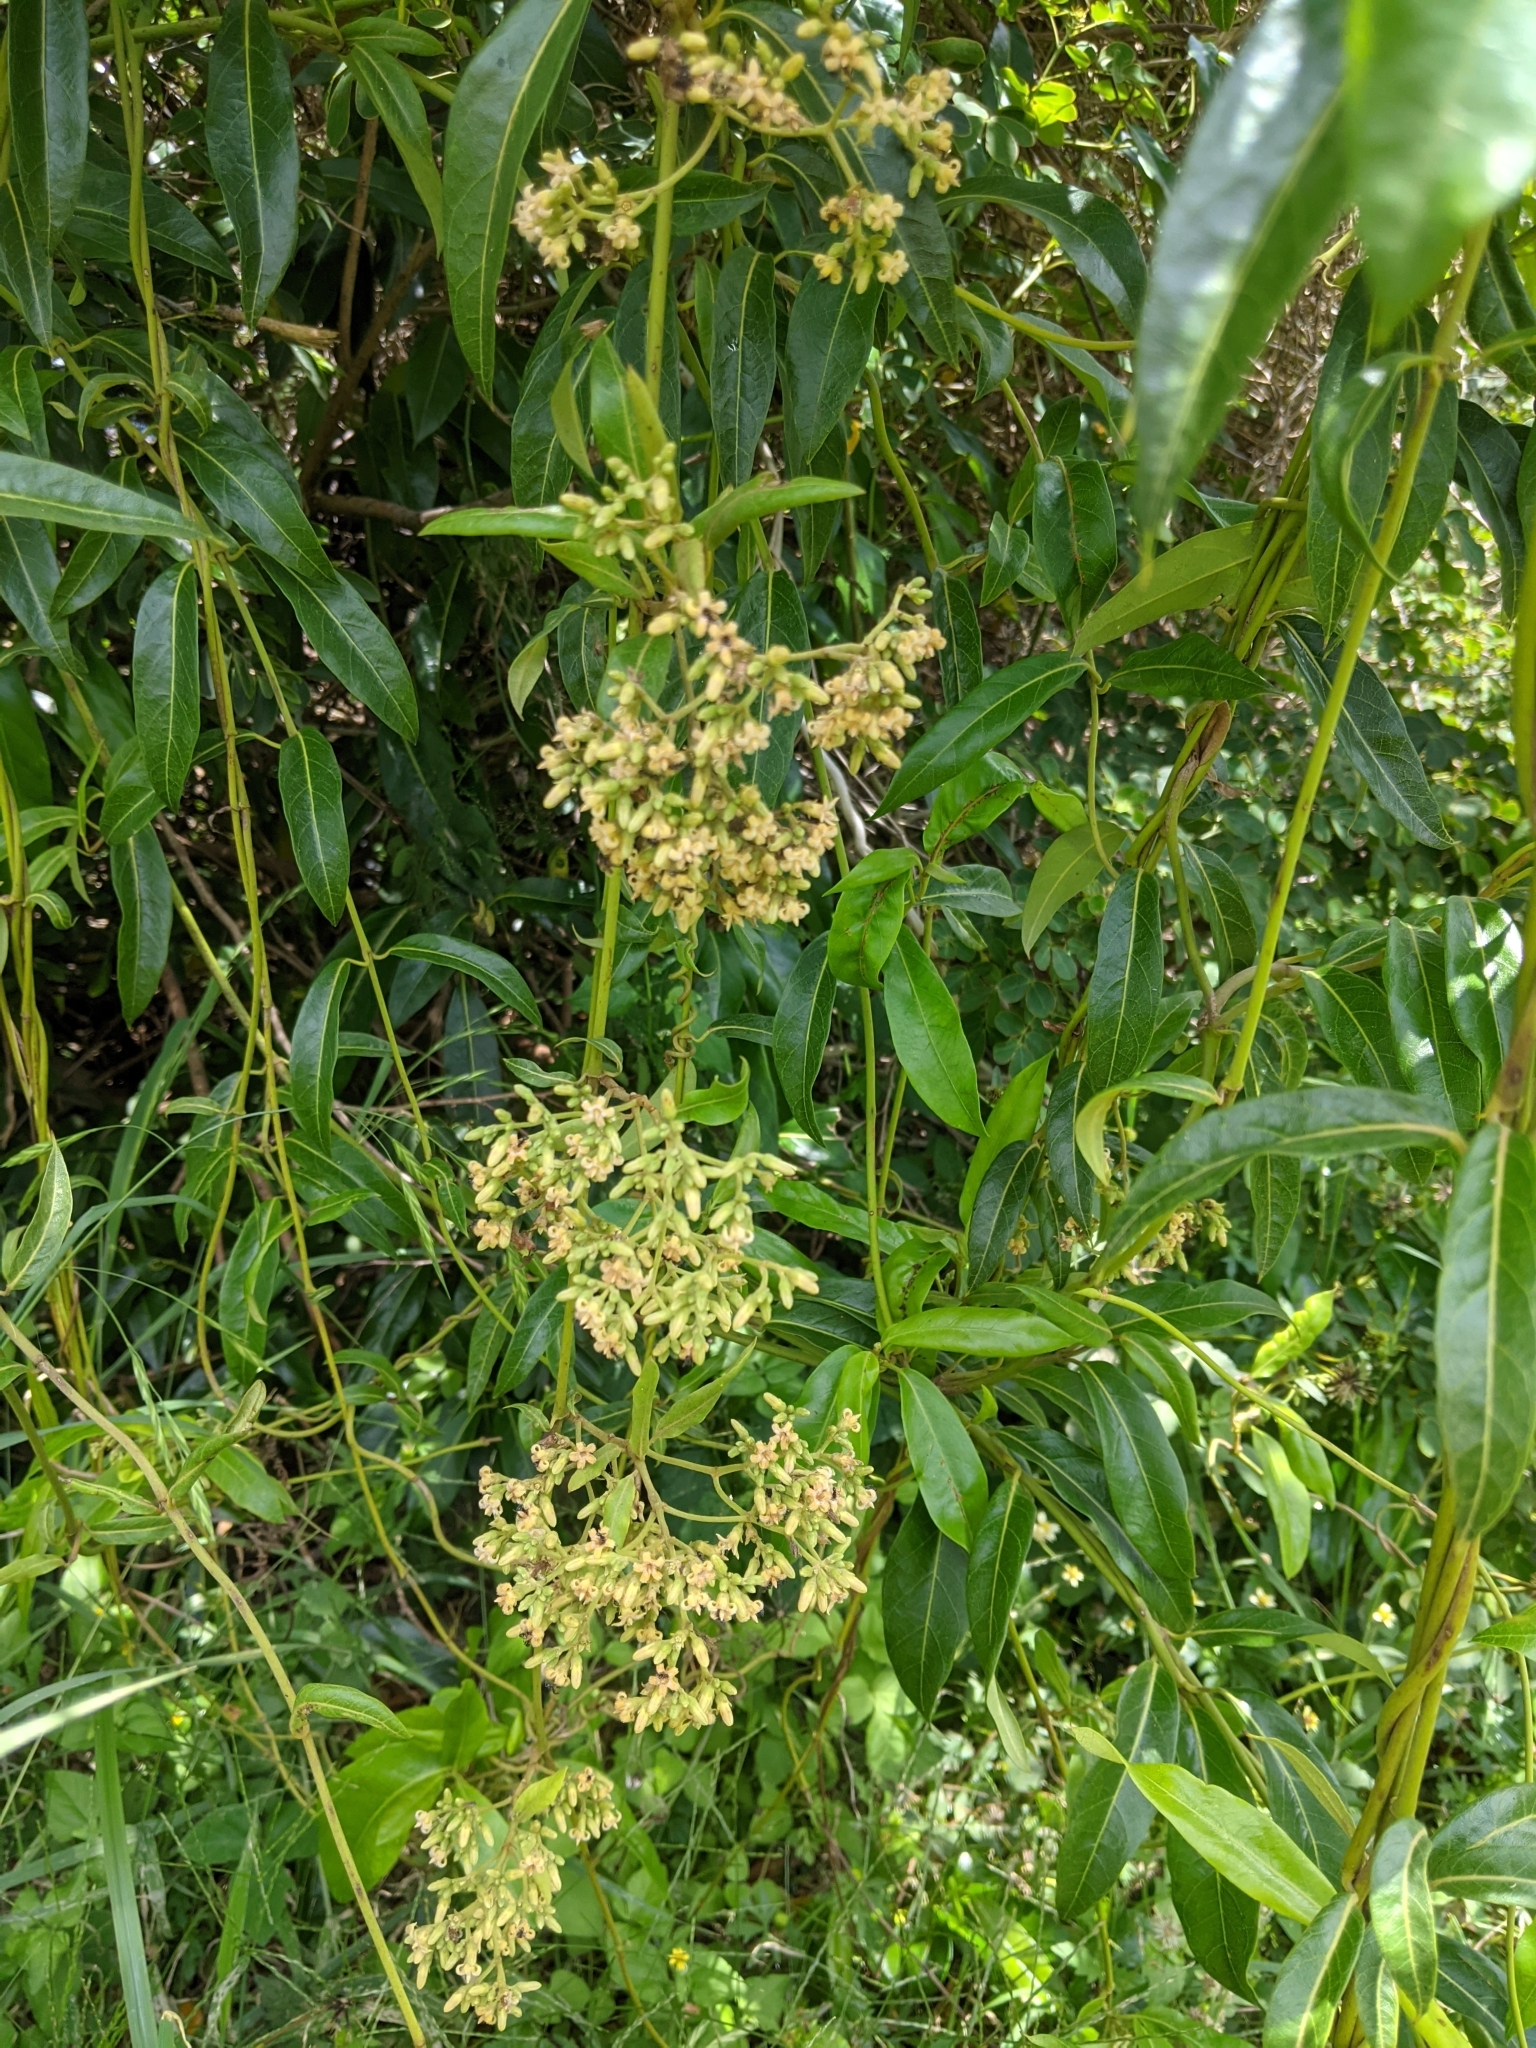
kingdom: Plantae
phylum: Tracheophyta
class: Magnoliopsida
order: Gentianales
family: Apocynaceae
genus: Parsonsia
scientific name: Parsonsia straminea
